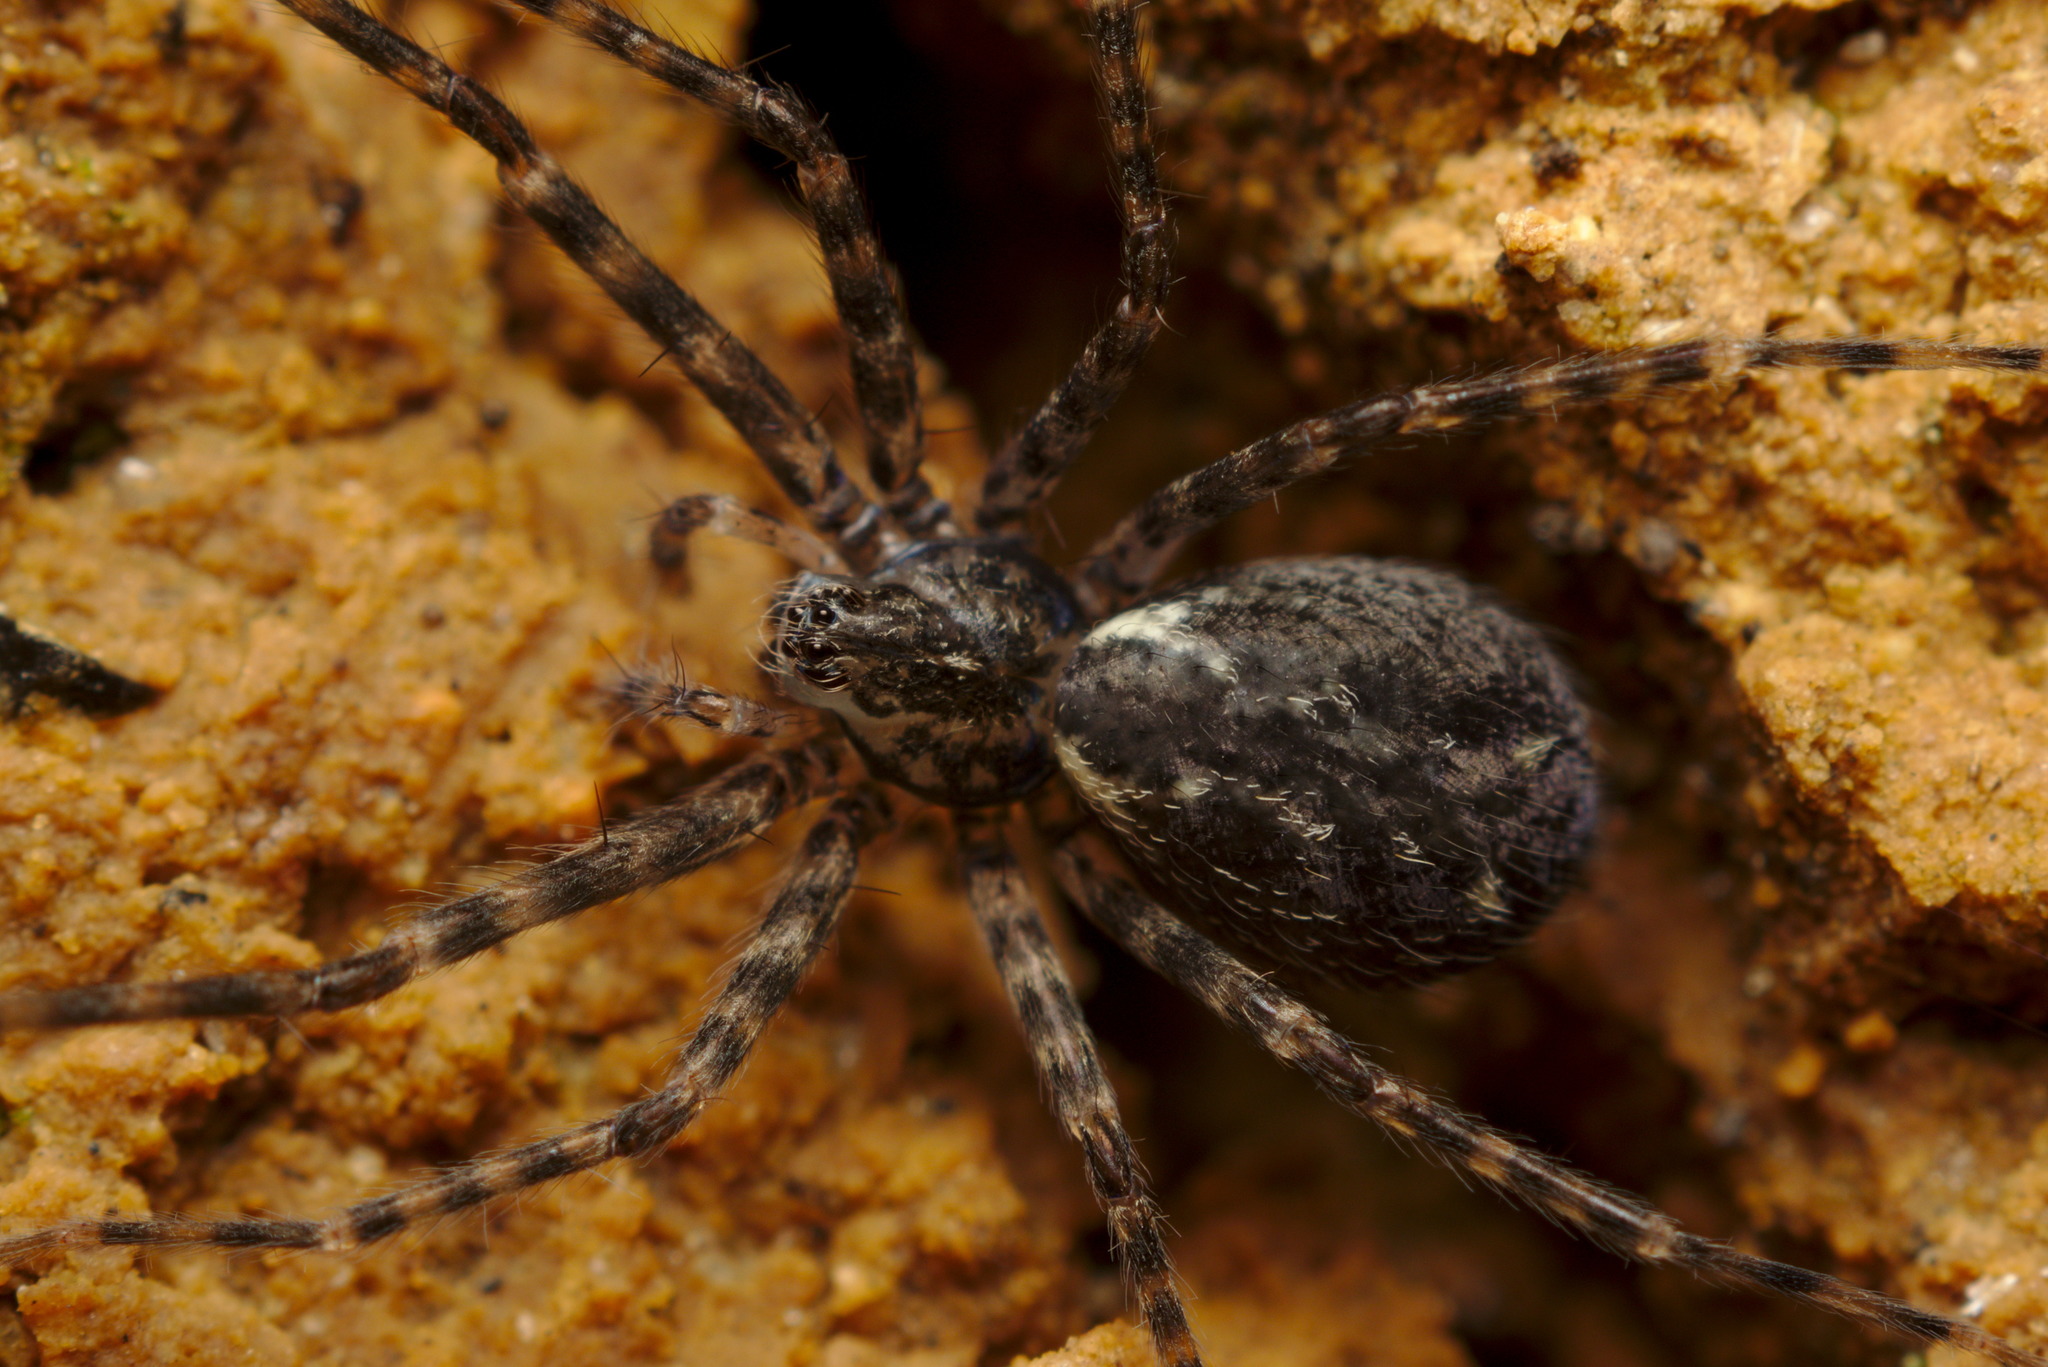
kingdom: Animalia
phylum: Arthropoda
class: Arachnida
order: Araneae
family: Stiphidiidae
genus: Stiphidion
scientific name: Stiphidion facetum
